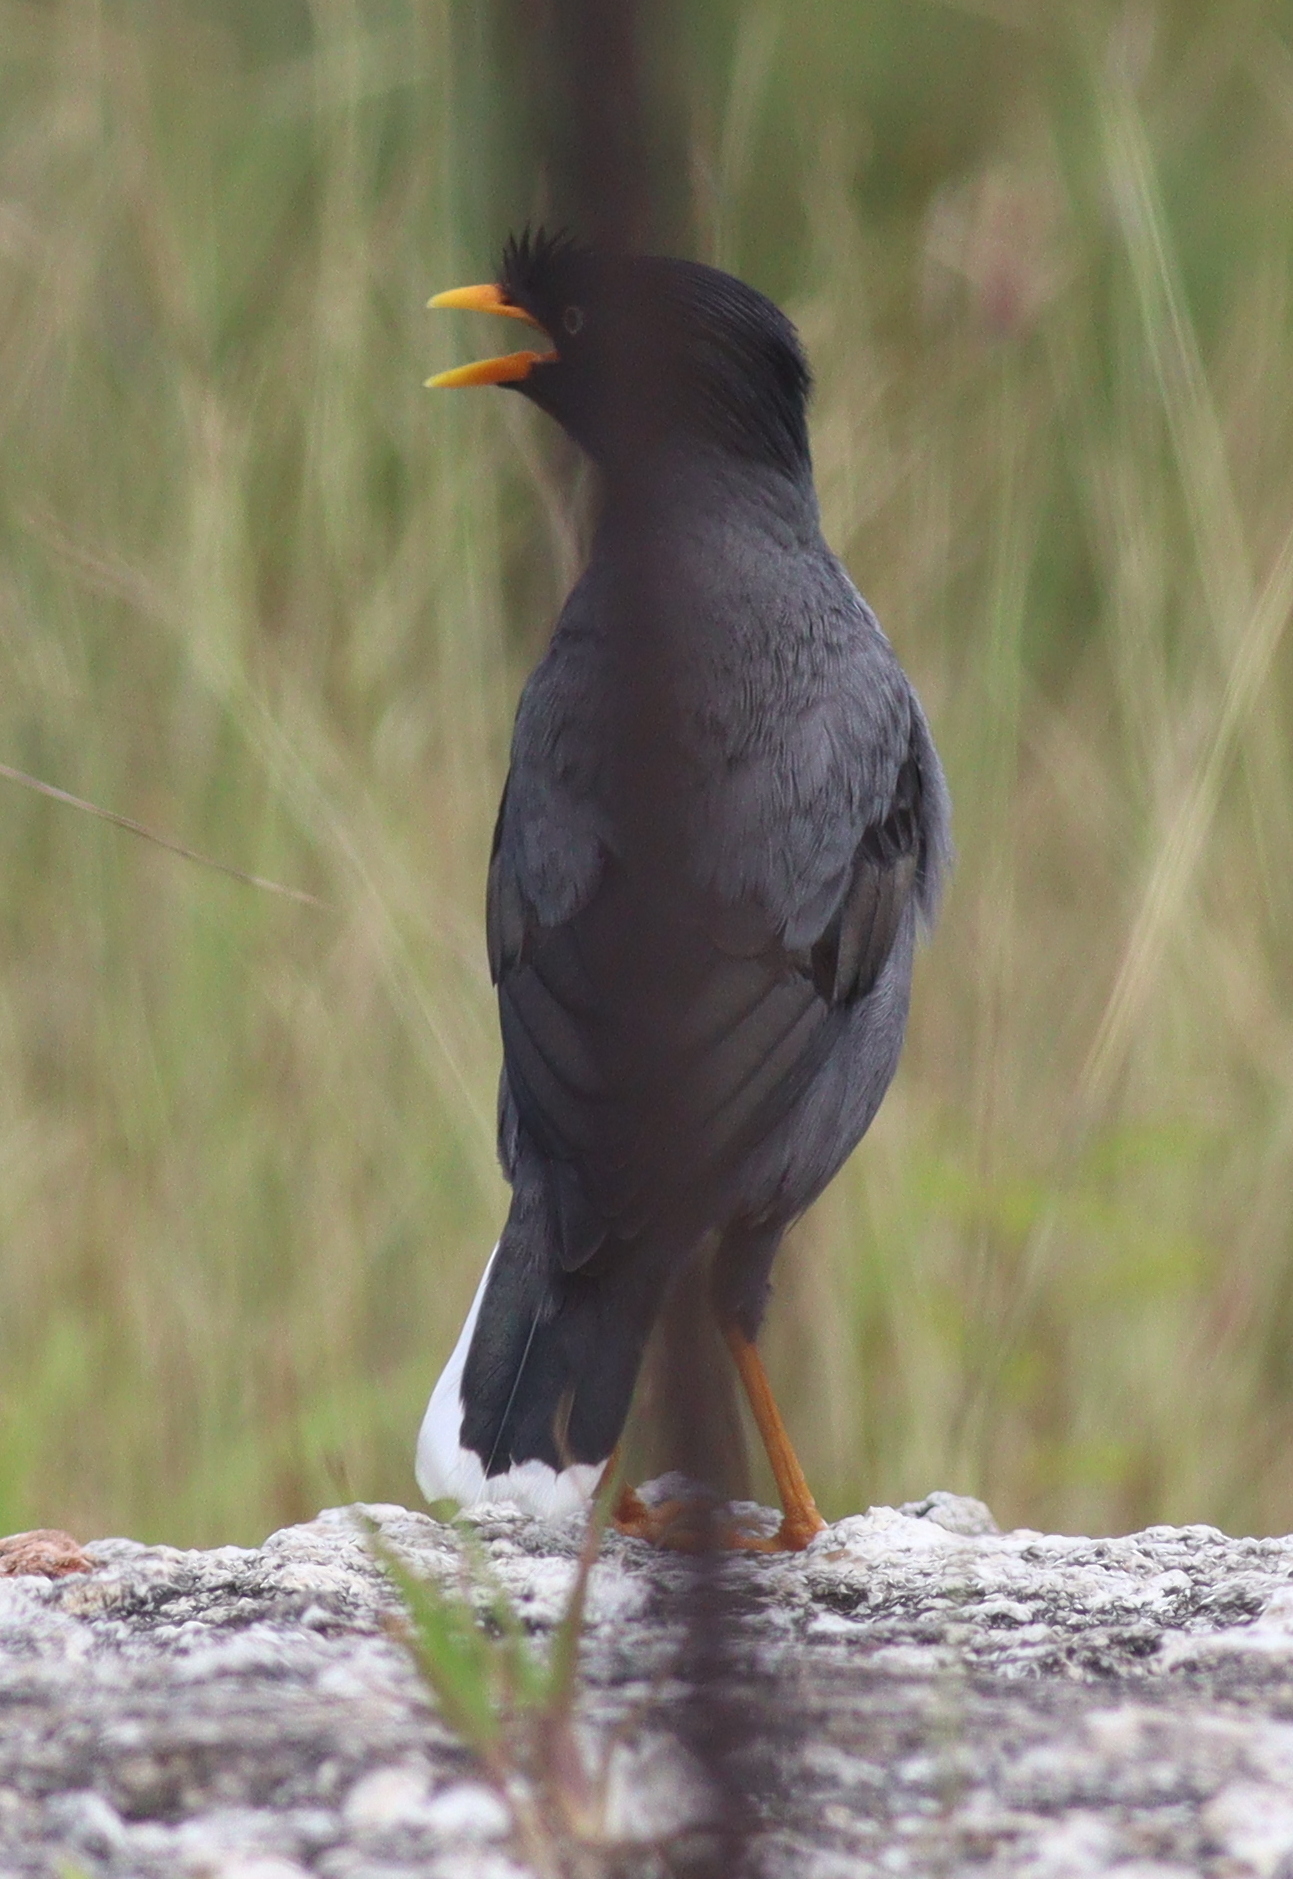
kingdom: Animalia
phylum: Chordata
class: Aves
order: Passeriformes
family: Sturnidae
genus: Acridotheres
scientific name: Acridotheres javanicus
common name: Javan myna
